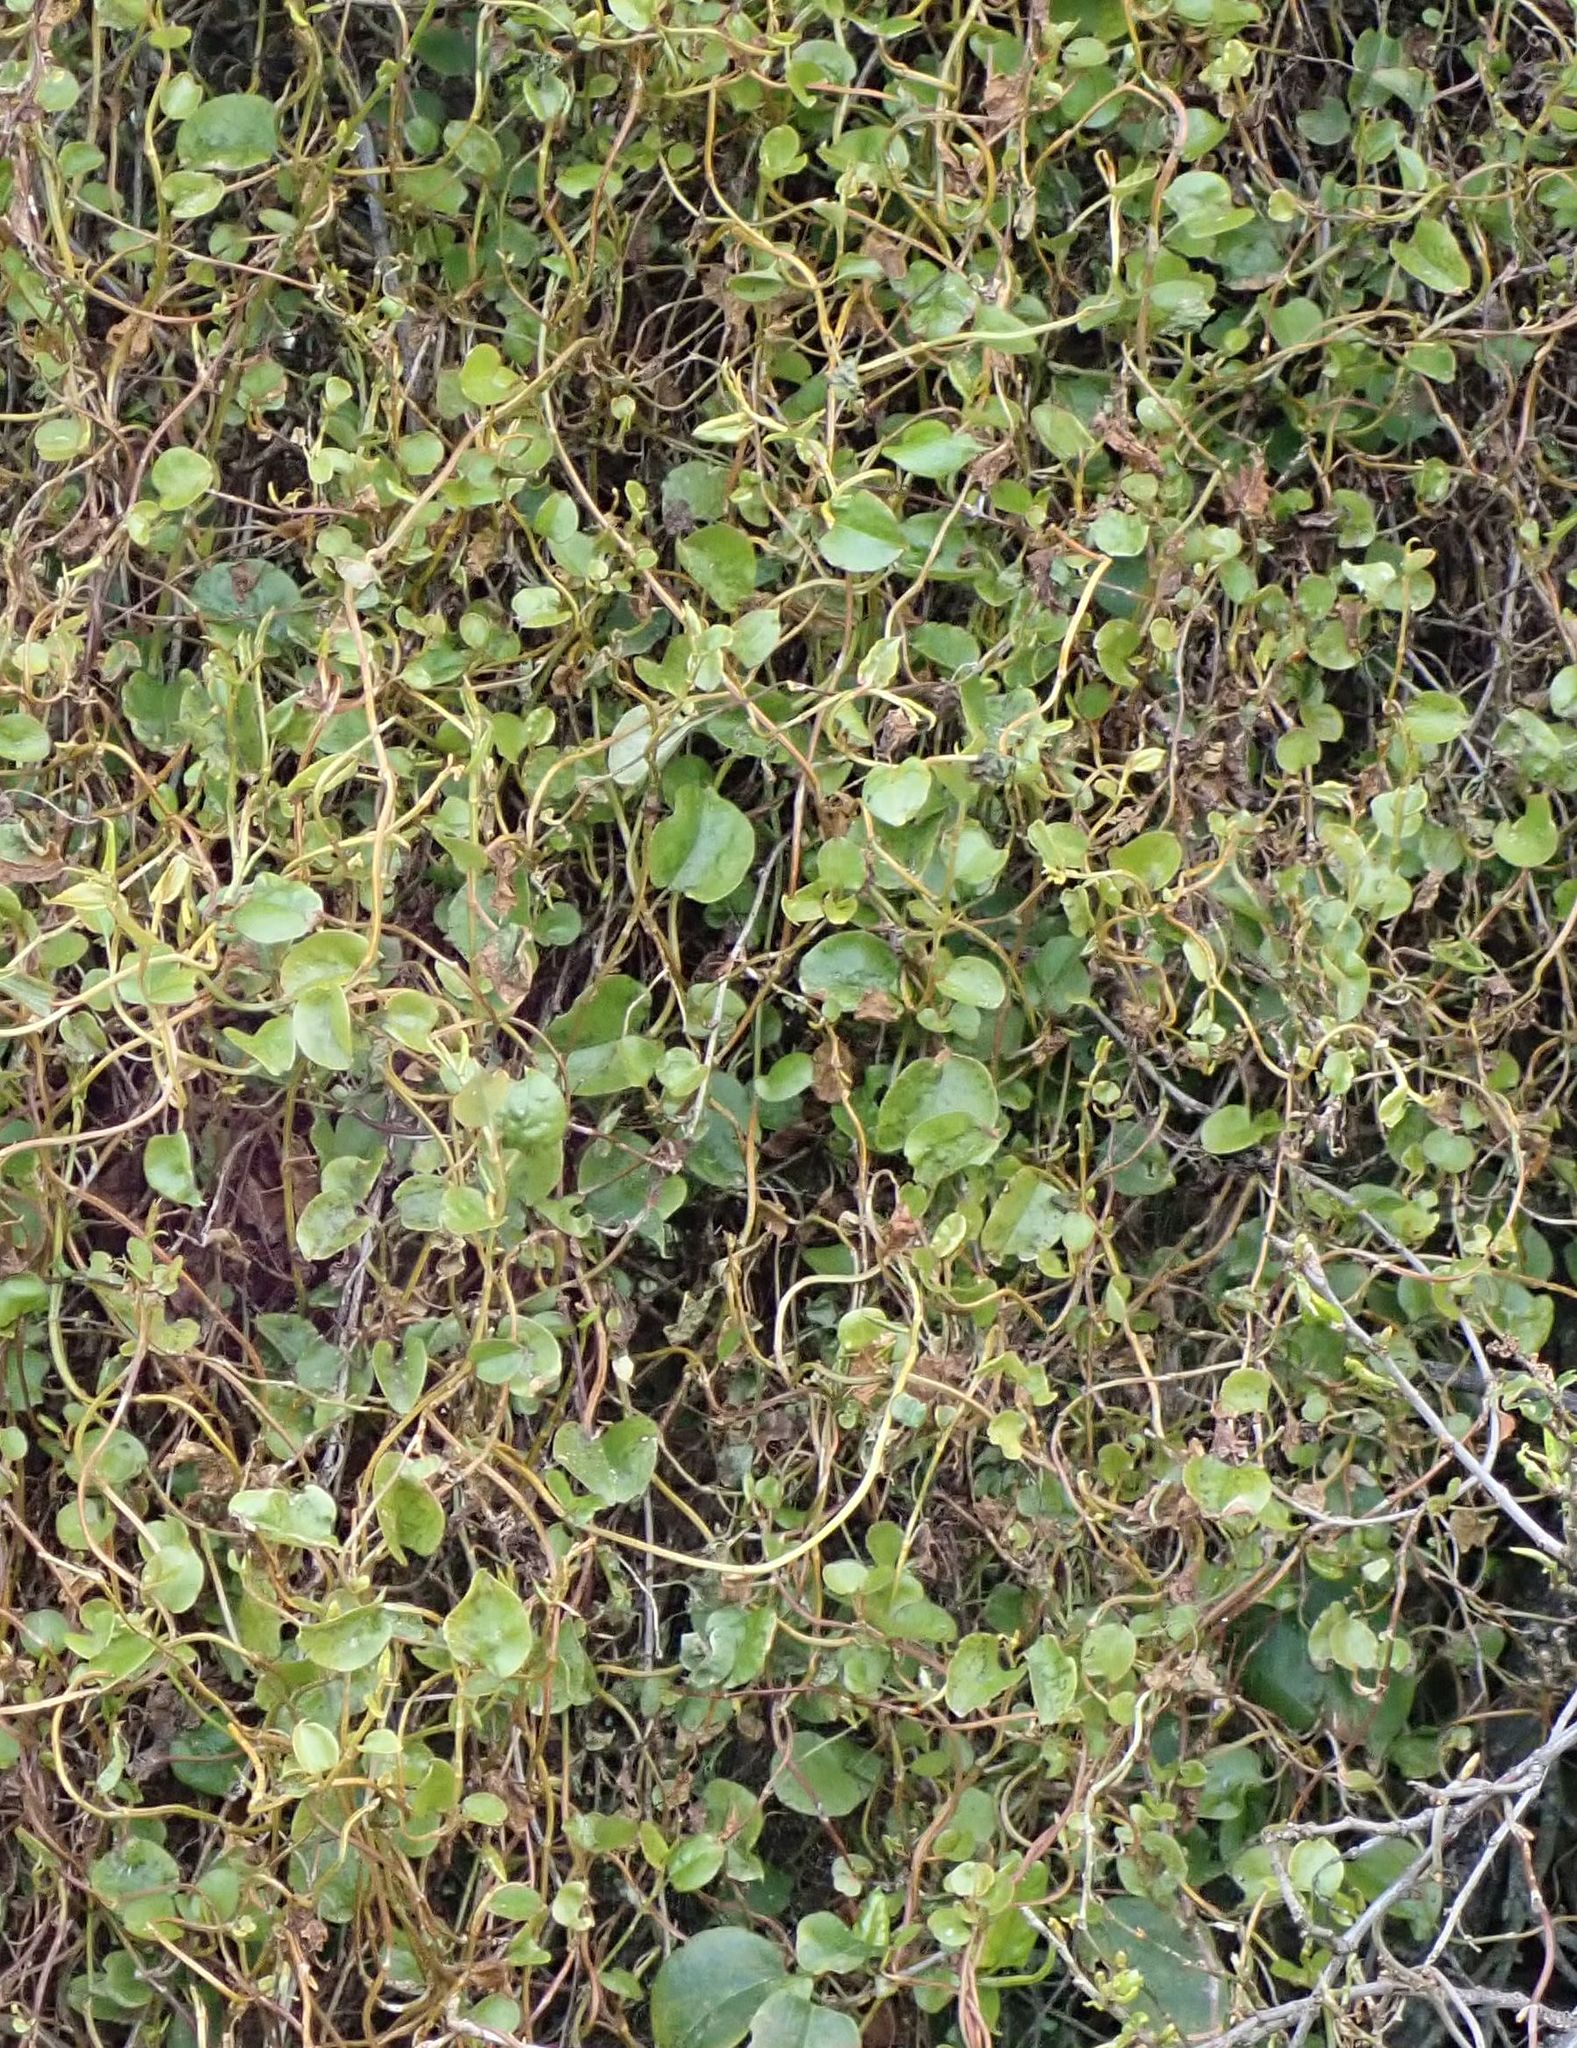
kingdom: Plantae
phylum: Tracheophyta
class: Magnoliopsida
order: Caryophyllales
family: Polygonaceae
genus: Muehlenbeckia
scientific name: Muehlenbeckia australis
